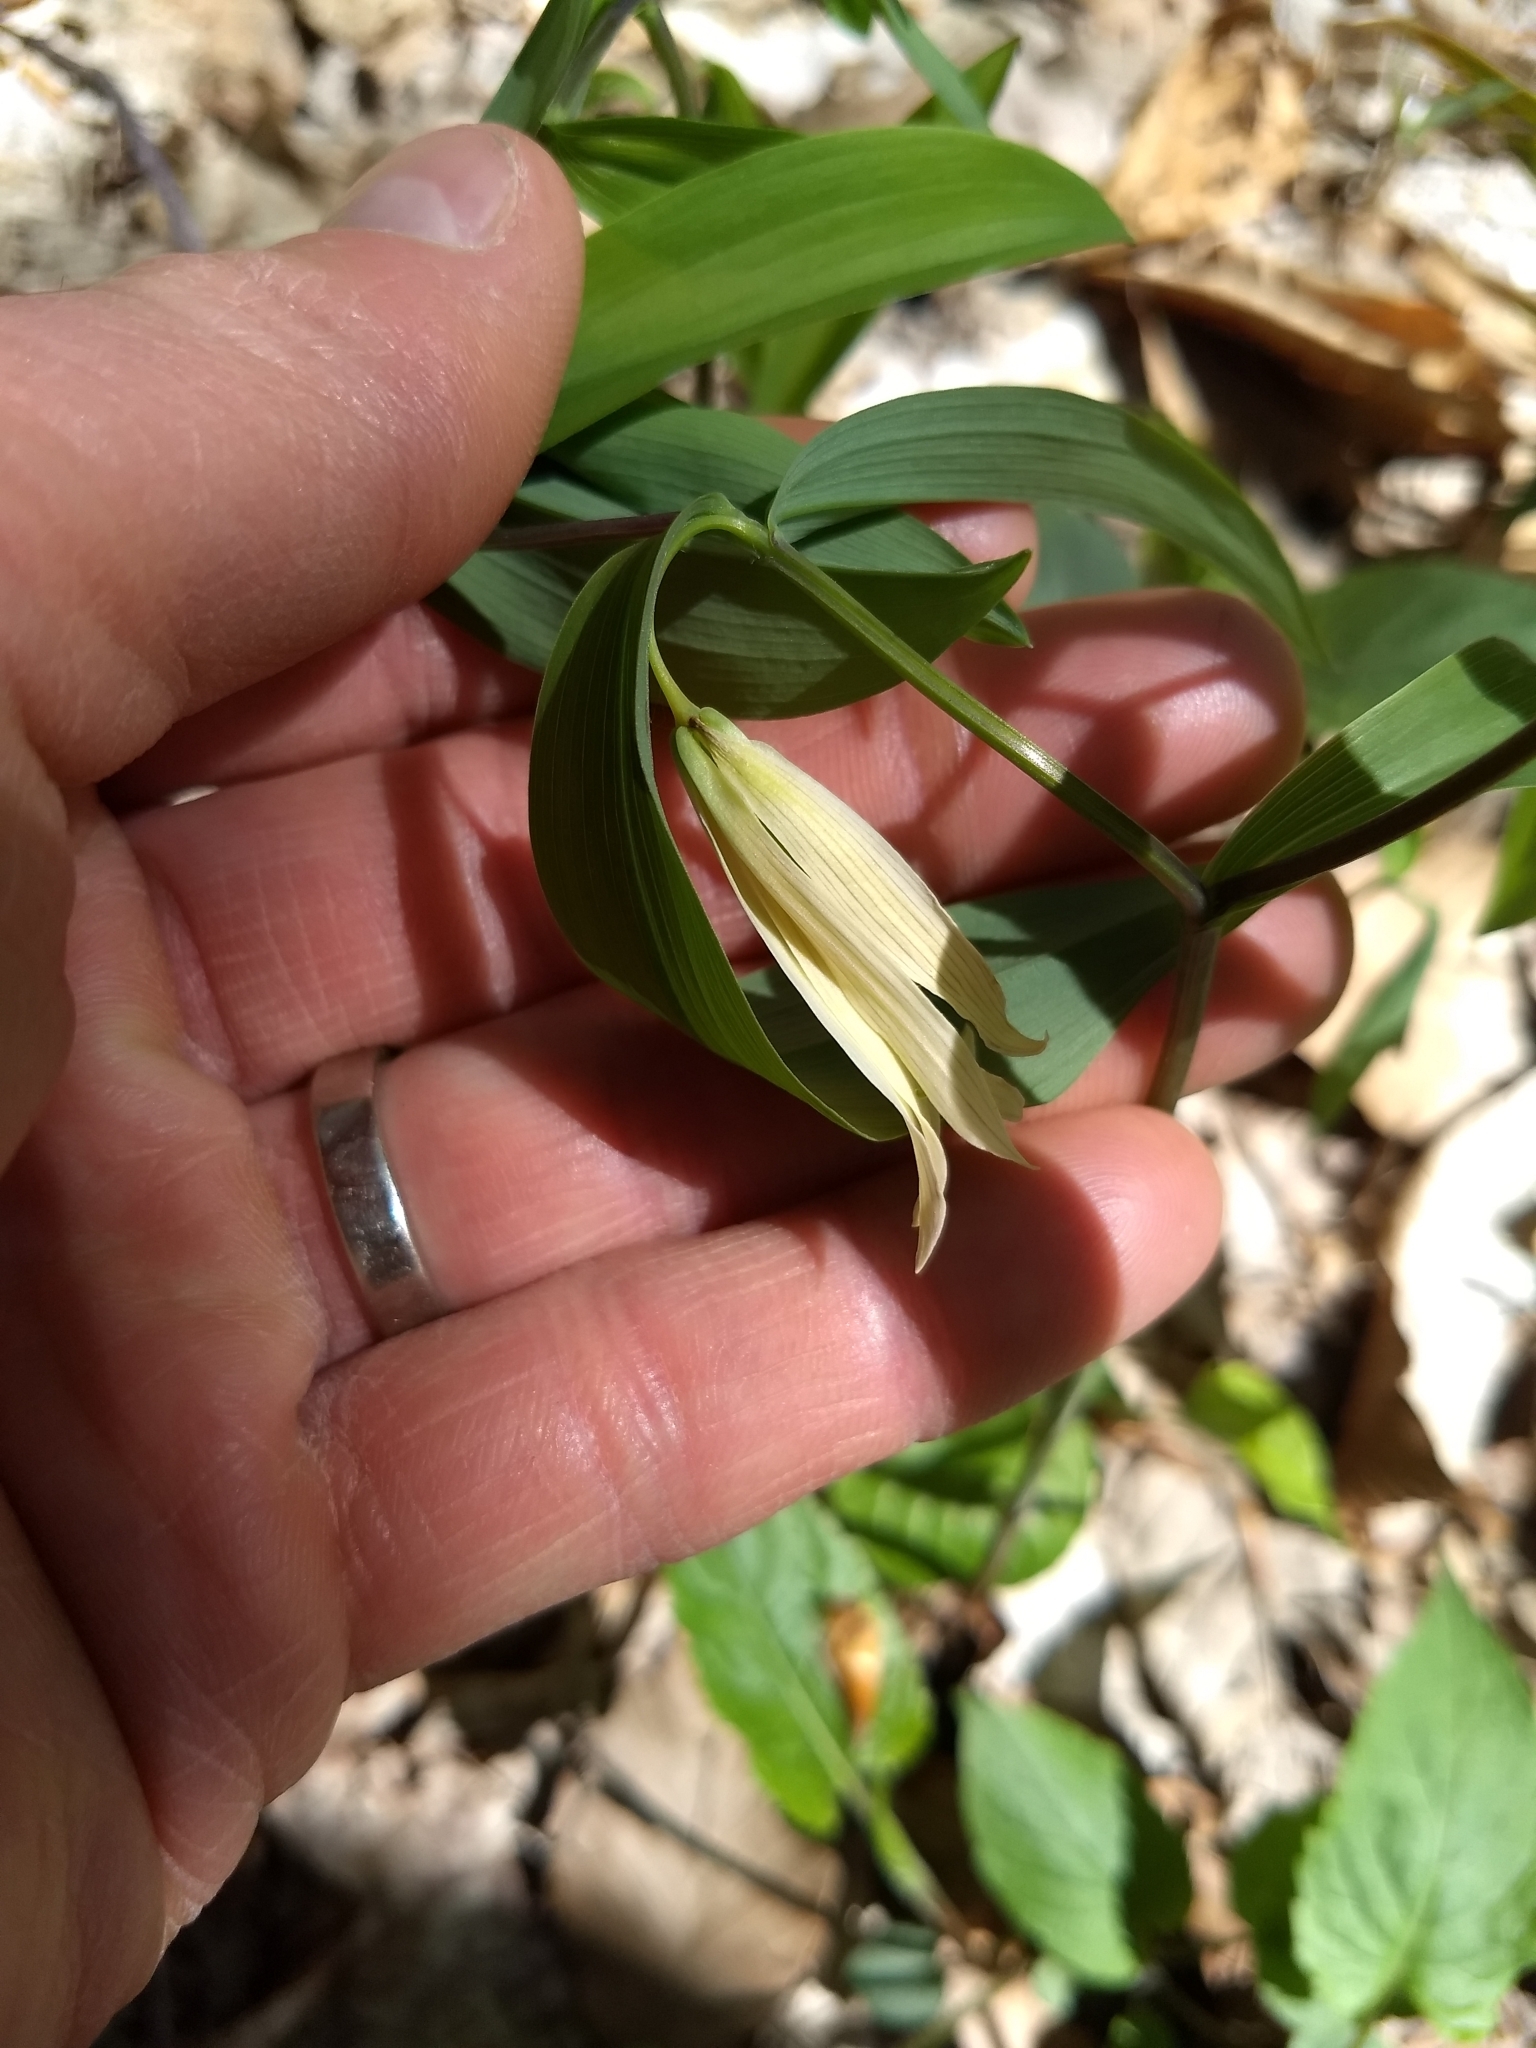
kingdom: Plantae
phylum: Tracheophyta
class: Liliopsida
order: Liliales
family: Colchicaceae
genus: Uvularia
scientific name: Uvularia sessilifolia
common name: Straw-lily
